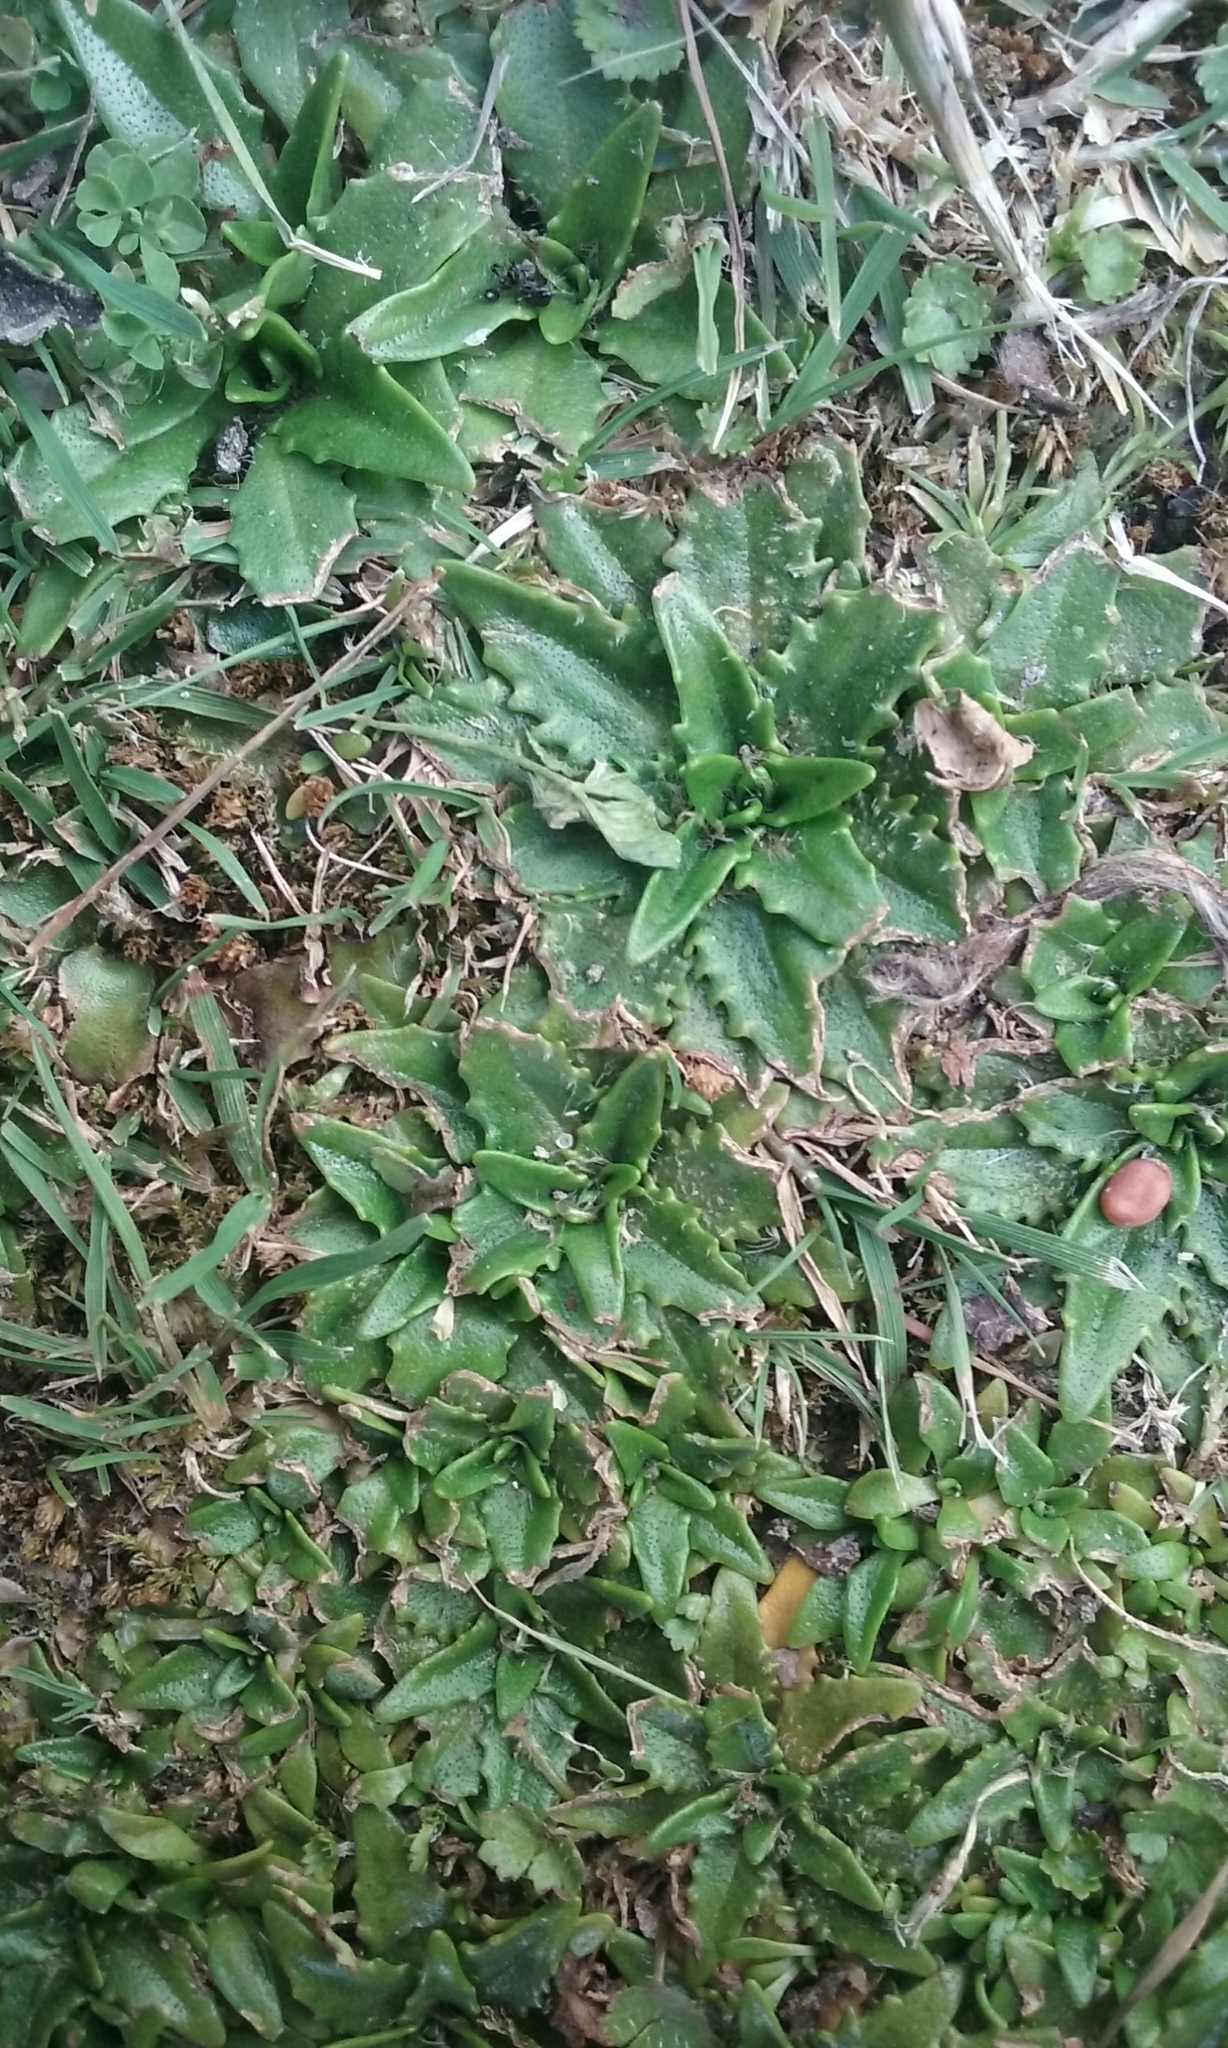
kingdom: Plantae
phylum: Tracheophyta
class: Magnoliopsida
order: Lamiales
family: Plantaginaceae
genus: Plantago
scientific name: Plantago triandra
